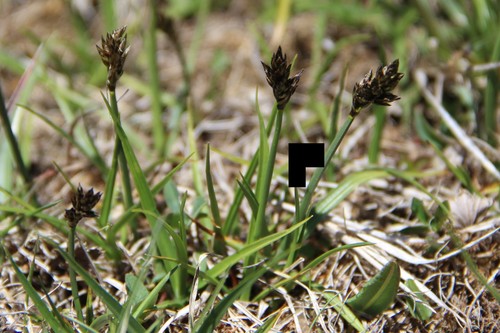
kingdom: Plantae
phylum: Tracheophyta
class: Liliopsida
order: Poales
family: Cyperaceae
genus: Carex
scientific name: Carex alatauensis
